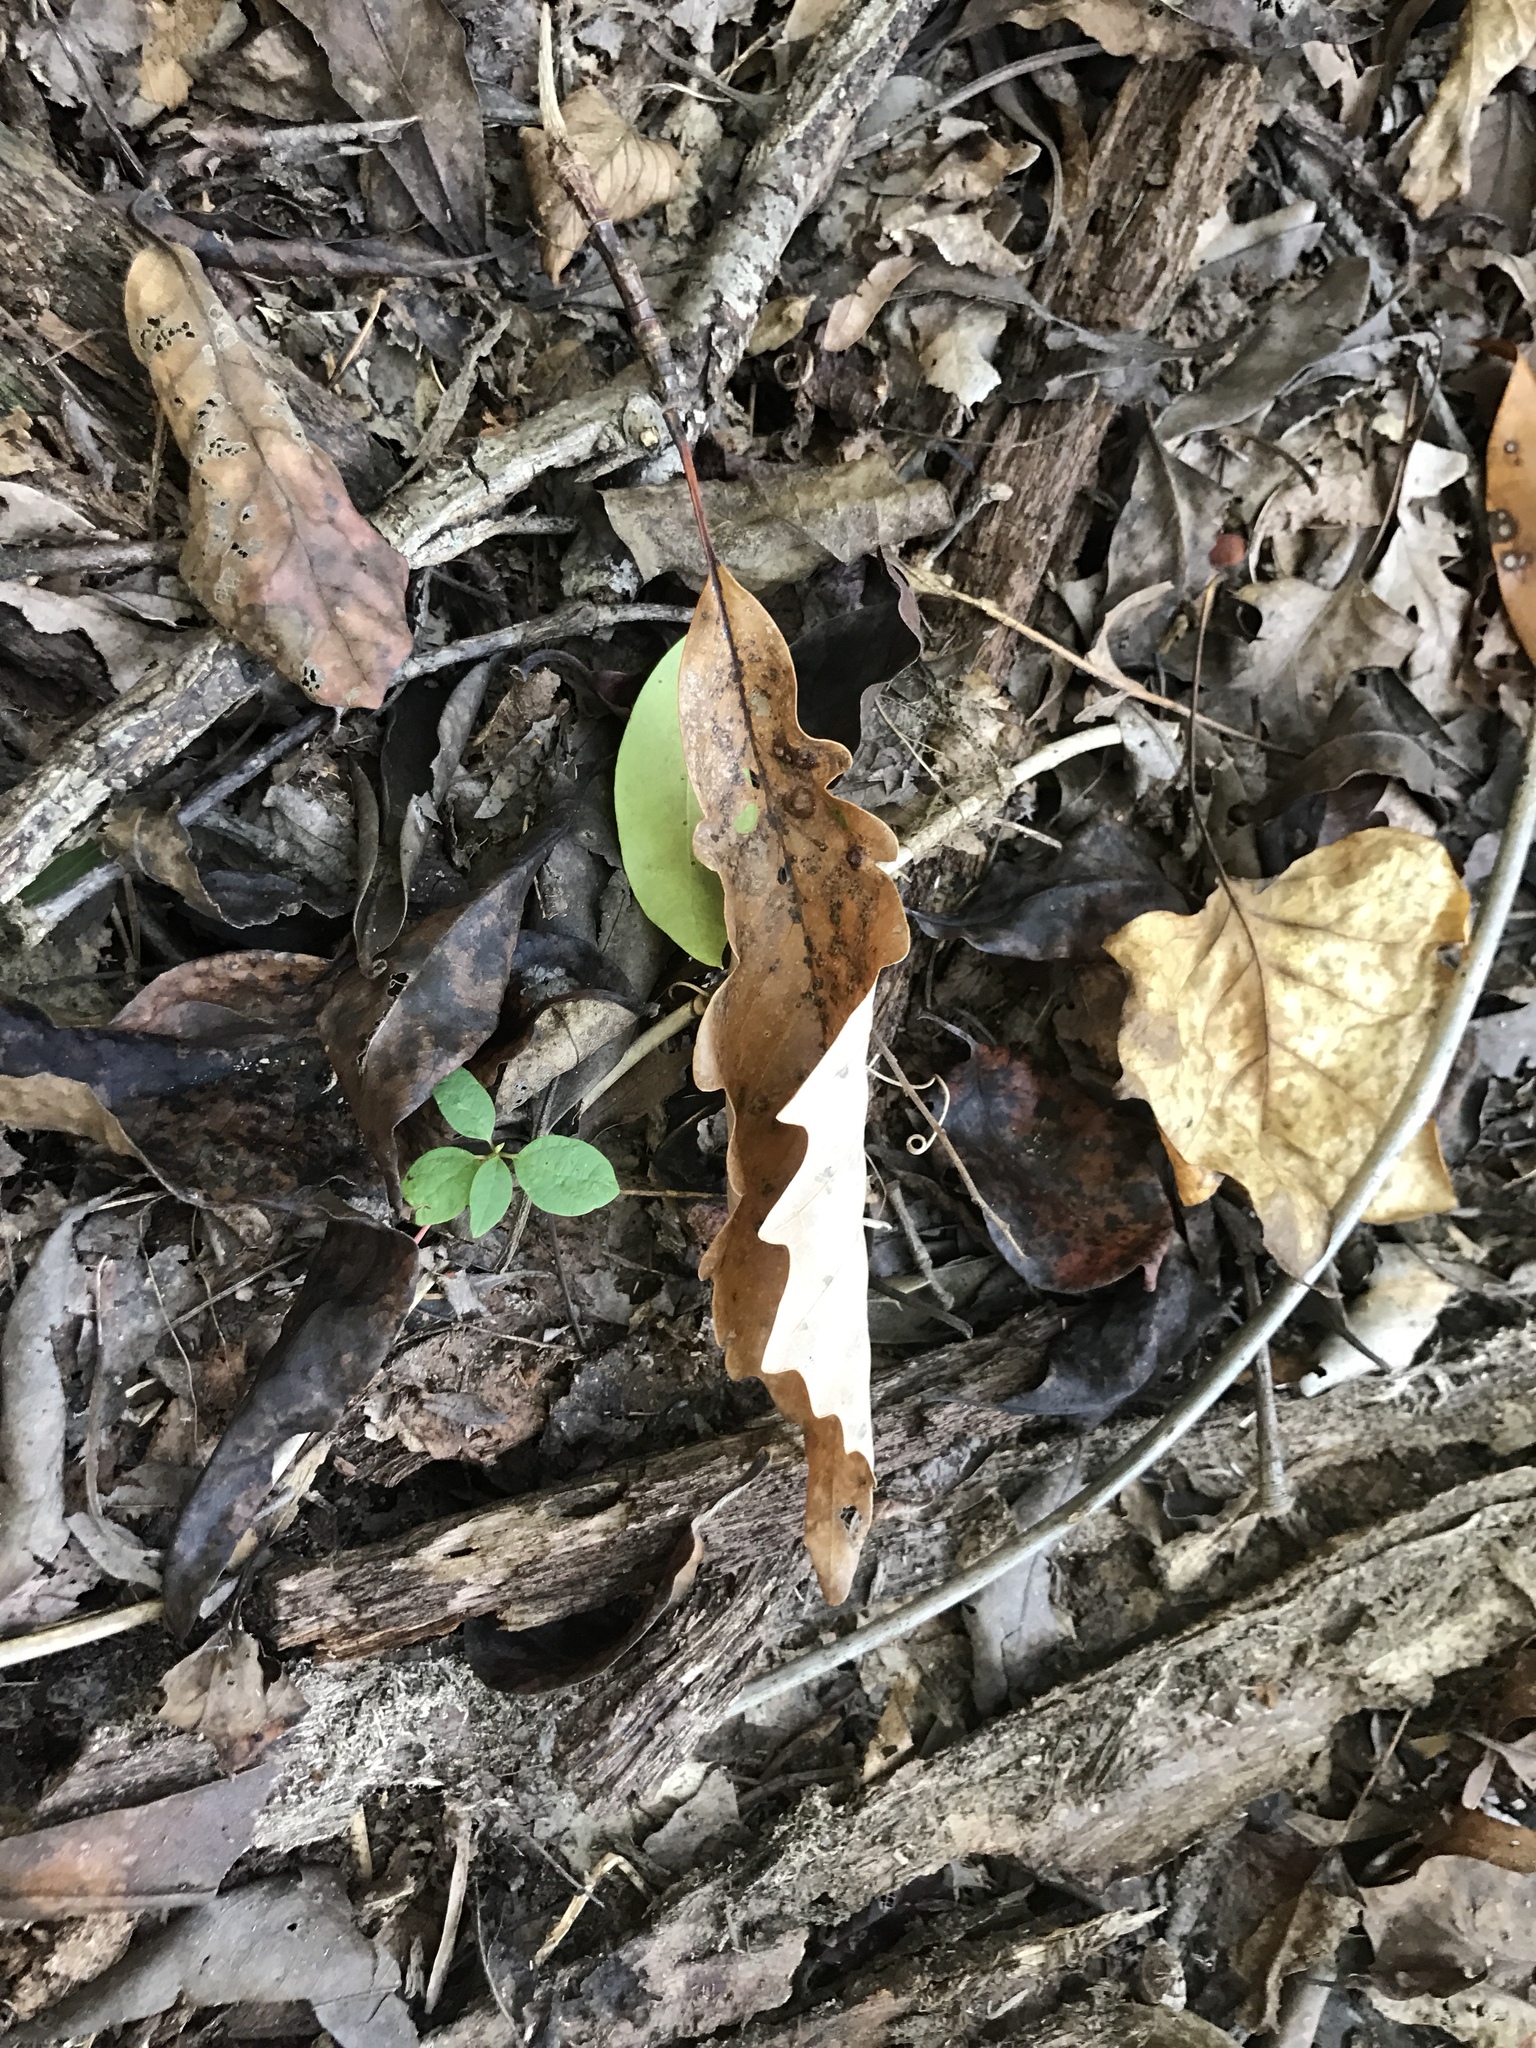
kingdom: Plantae
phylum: Tracheophyta
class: Magnoliopsida
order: Fagales
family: Fagaceae
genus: Quercus
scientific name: Quercus montana
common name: Chestnut oak
